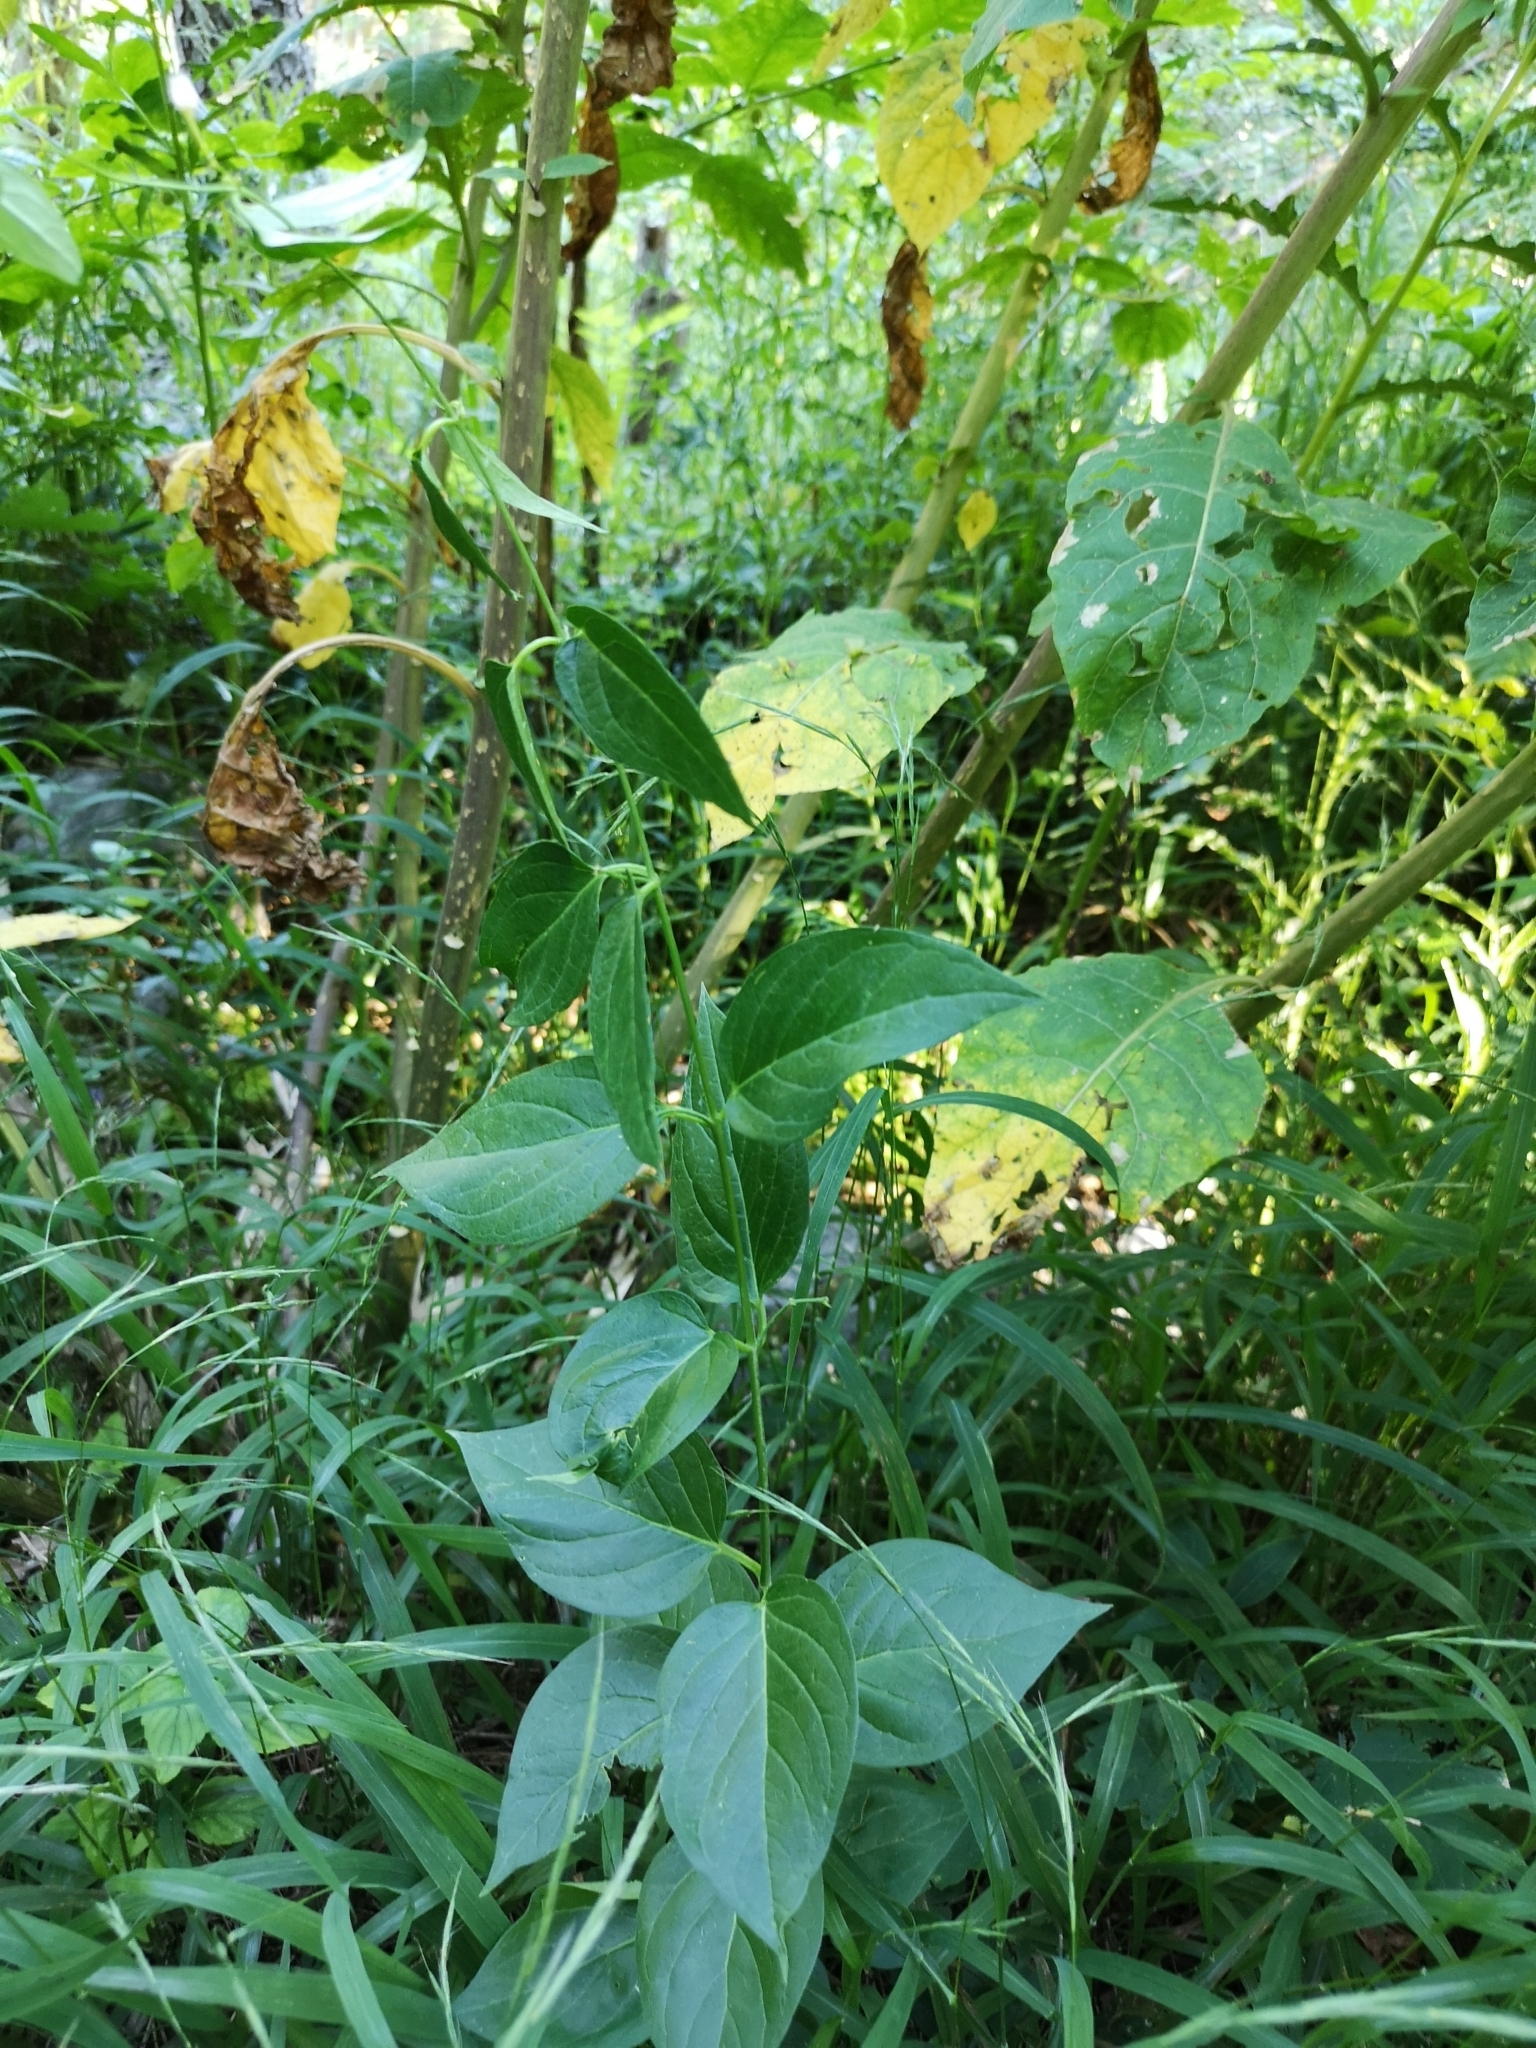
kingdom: Plantae
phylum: Tracheophyta
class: Magnoliopsida
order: Gentianales
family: Apocynaceae
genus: Vincetoxicum
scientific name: Vincetoxicum hirundinaria
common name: White swallowwort
